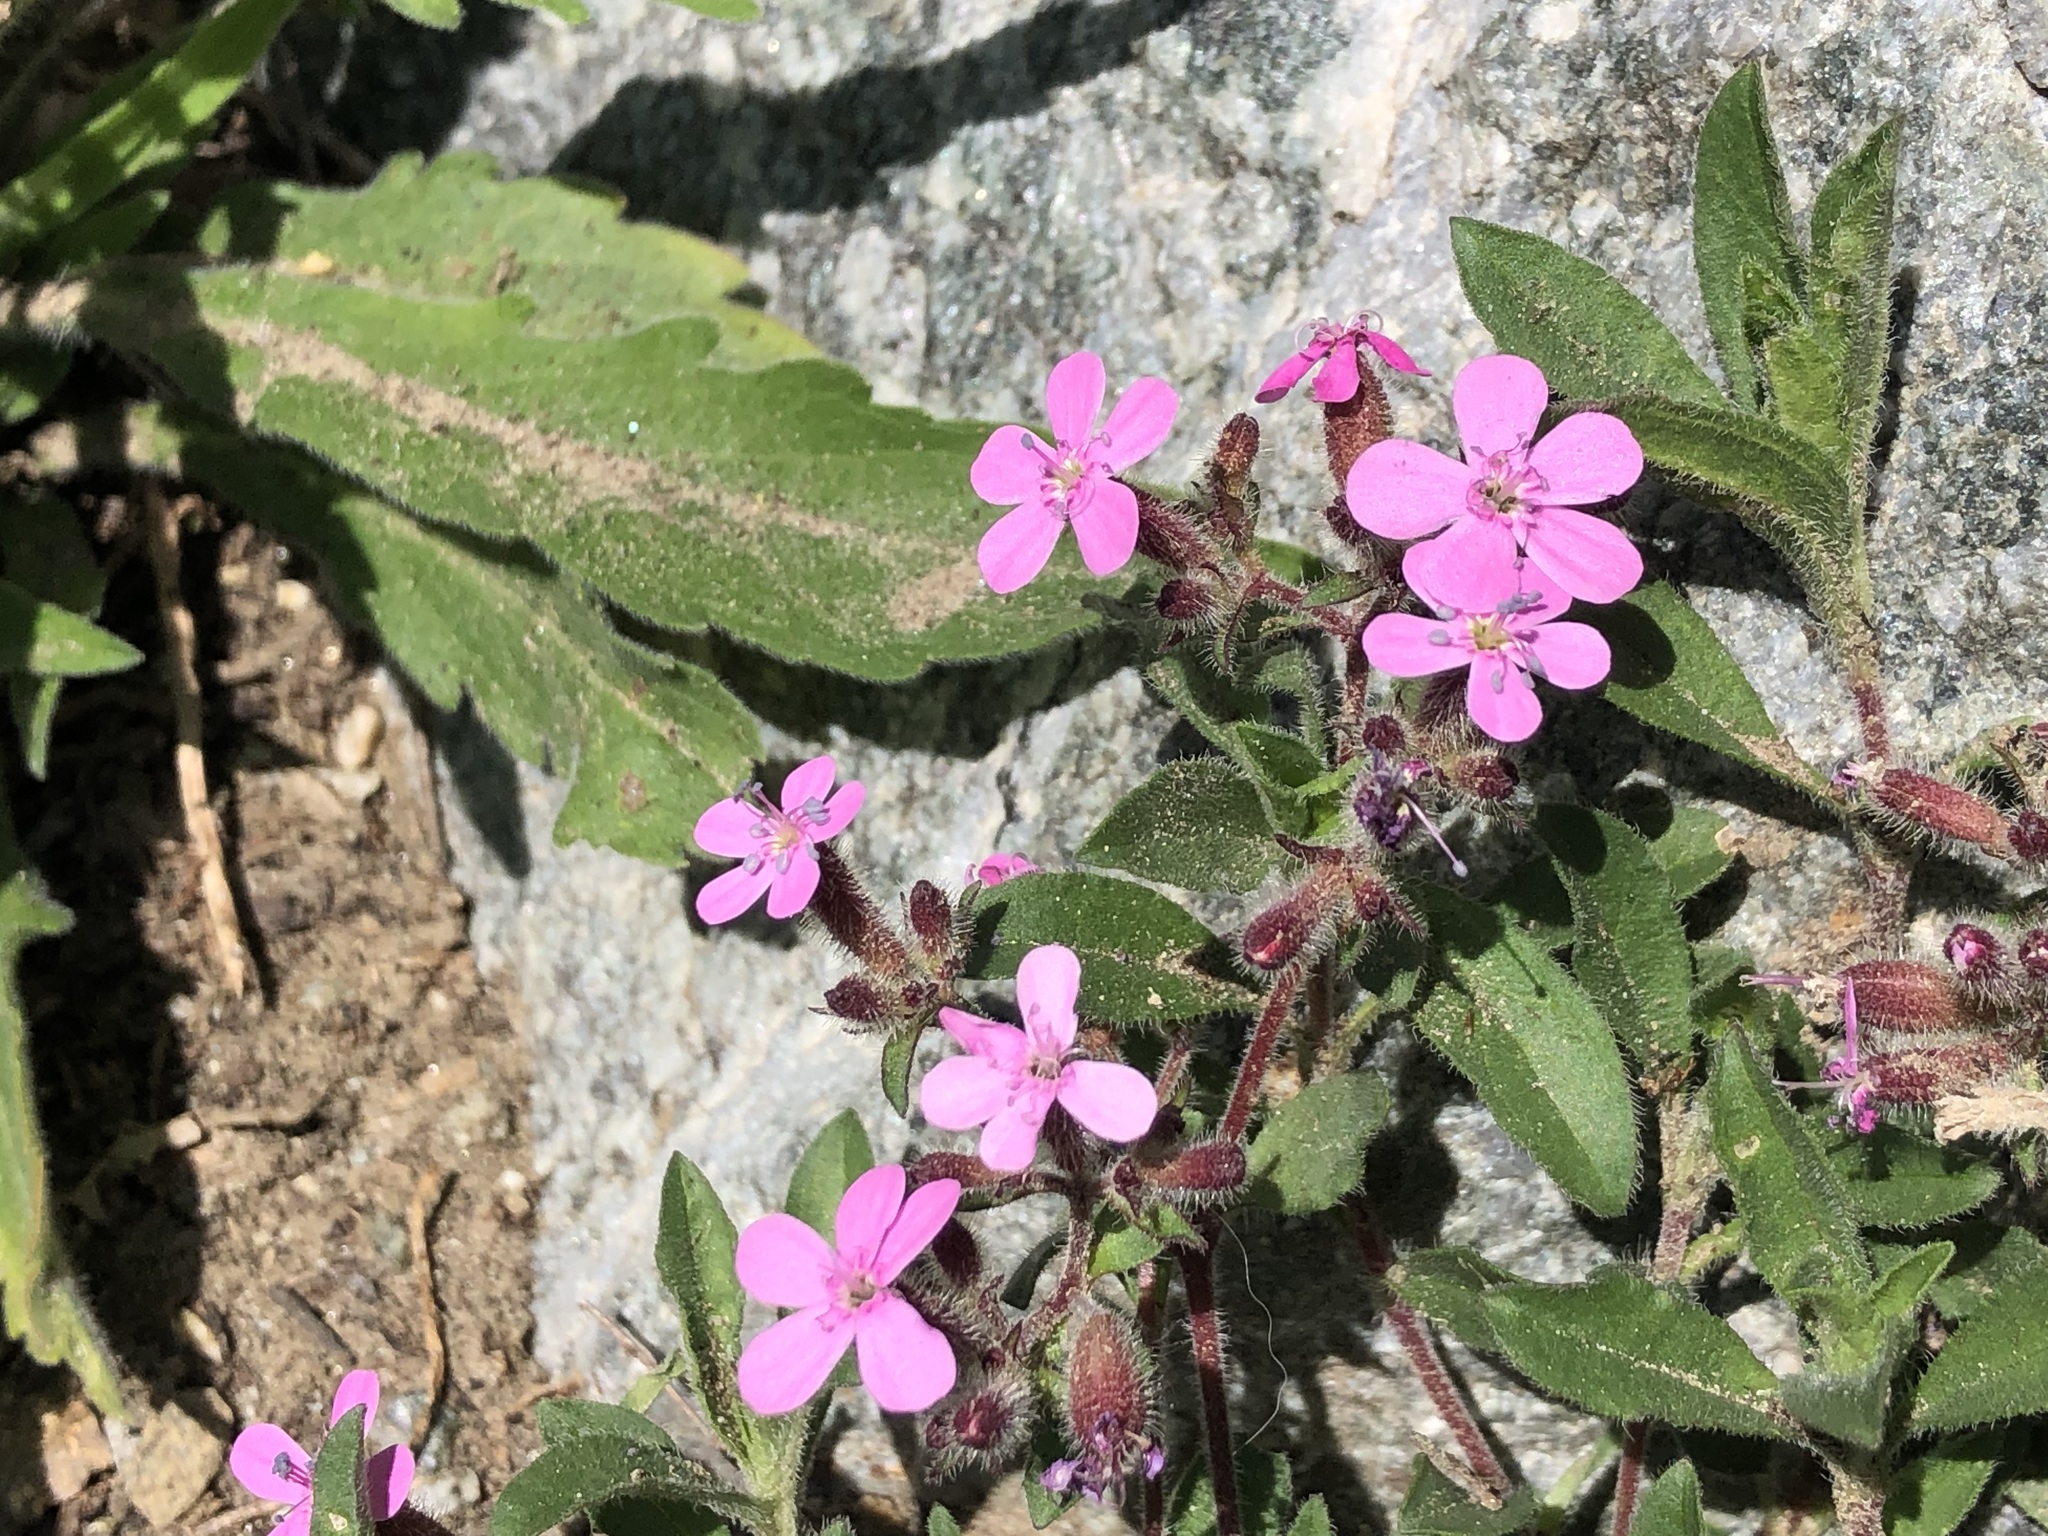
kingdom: Plantae
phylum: Tracheophyta
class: Magnoliopsida
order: Caryophyllales
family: Caryophyllaceae
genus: Saponaria
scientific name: Saponaria ocymoides
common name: Rock soapwort
